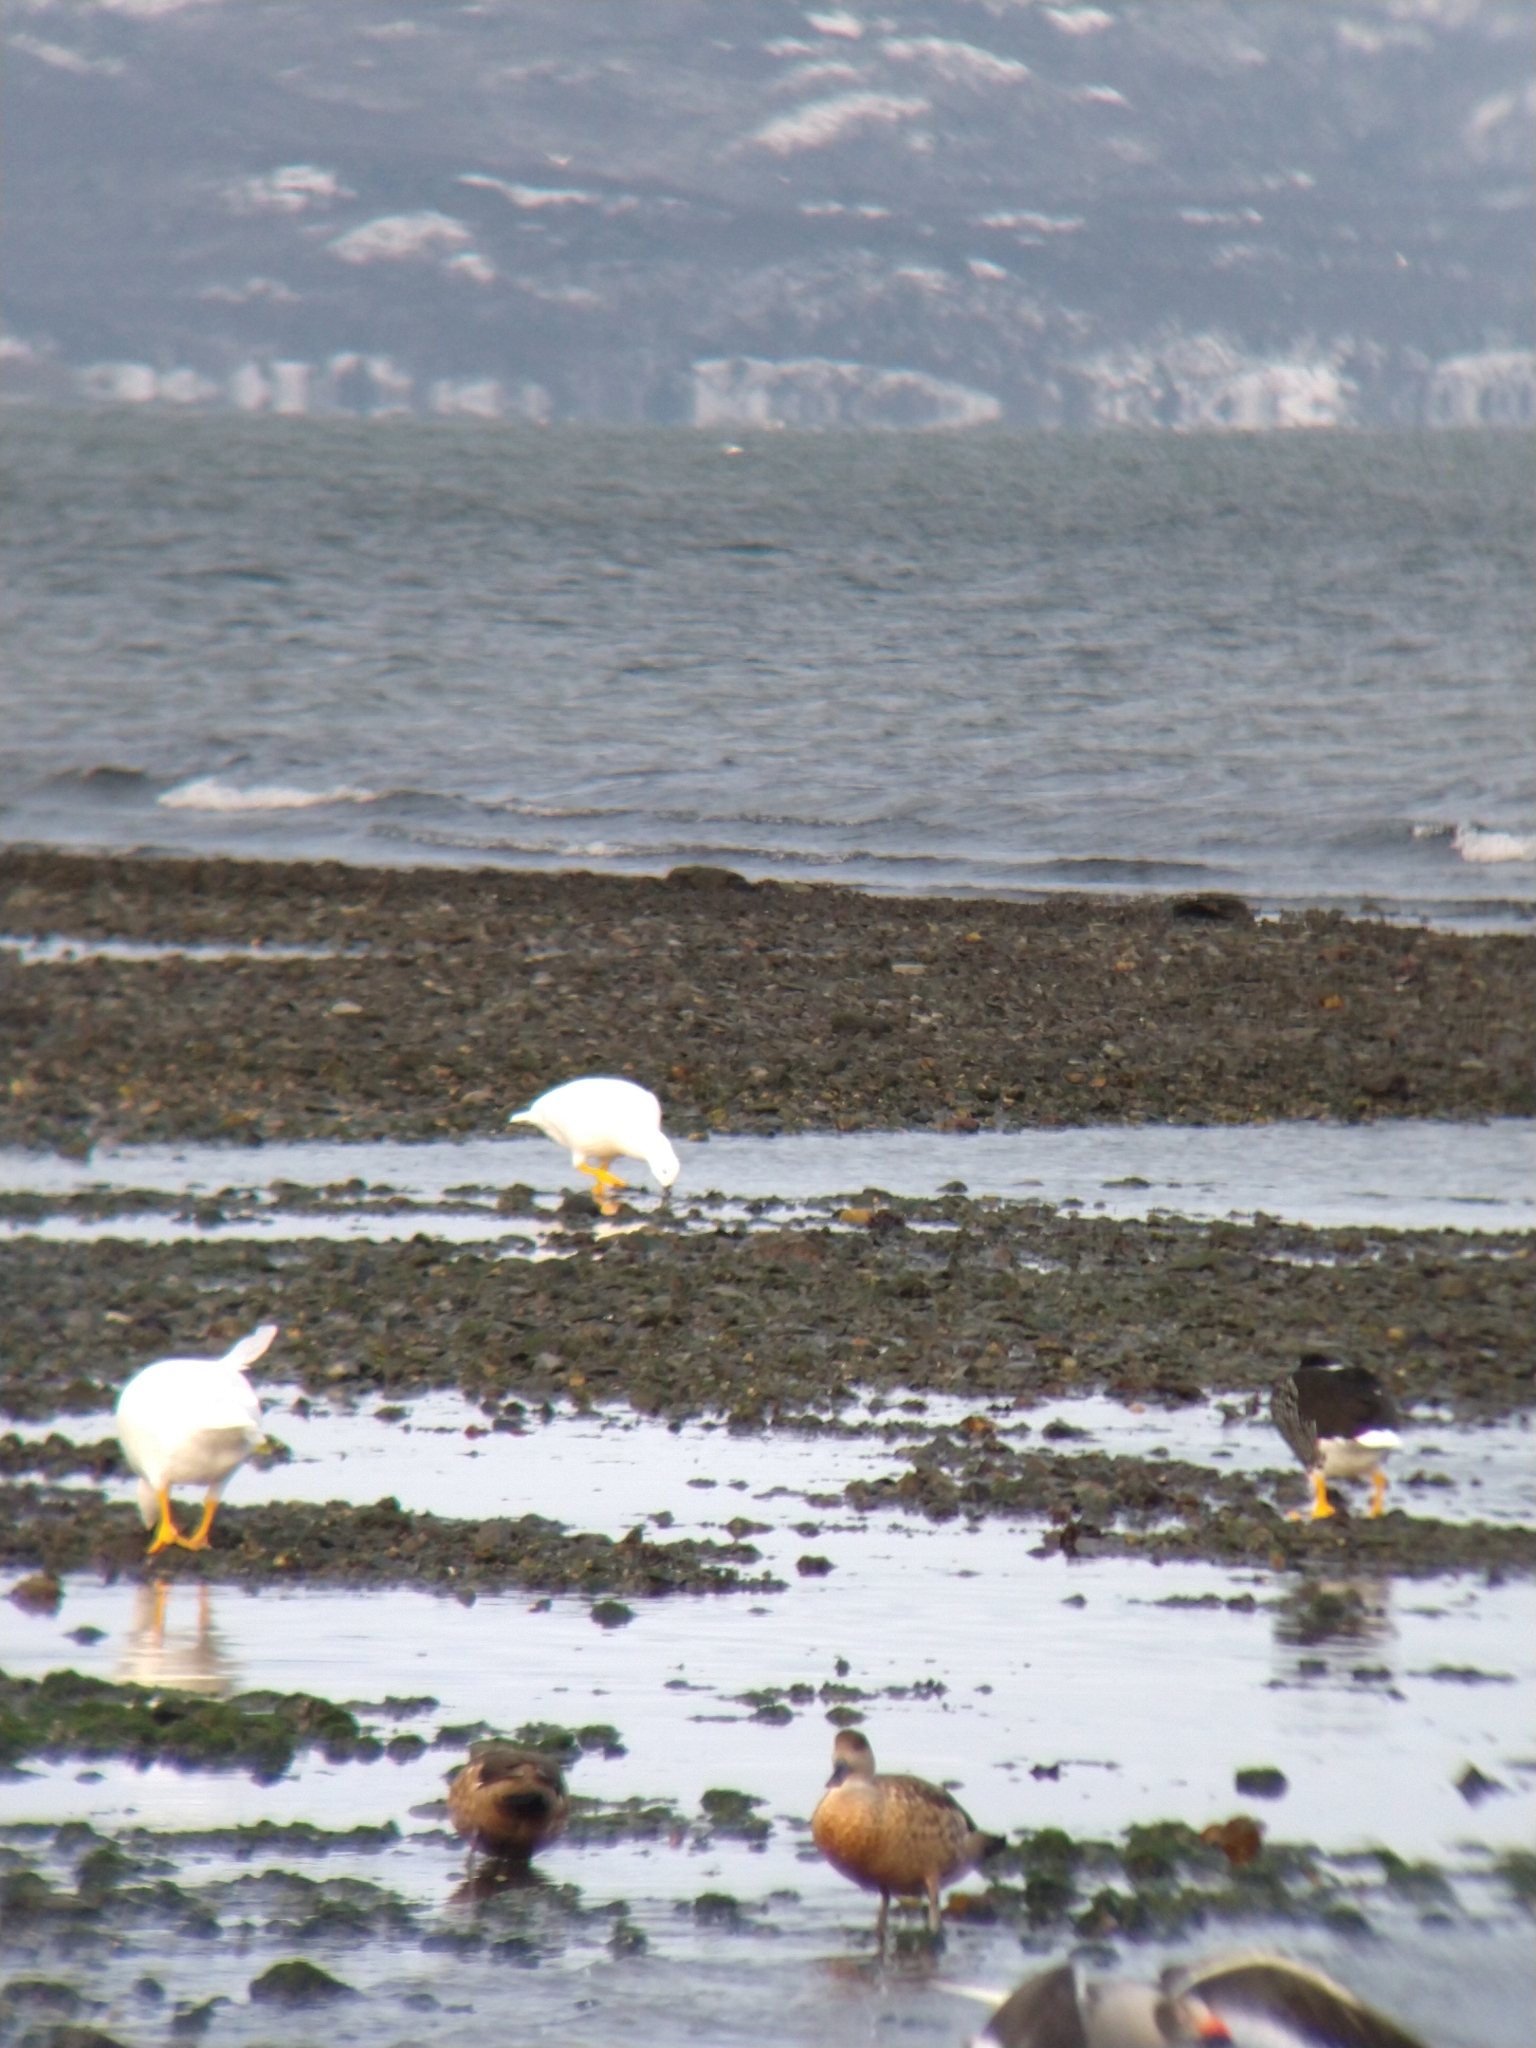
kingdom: Animalia
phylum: Chordata
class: Aves
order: Anseriformes
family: Anatidae
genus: Chloephaga
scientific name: Chloephaga hybrida
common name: Kelp goose
